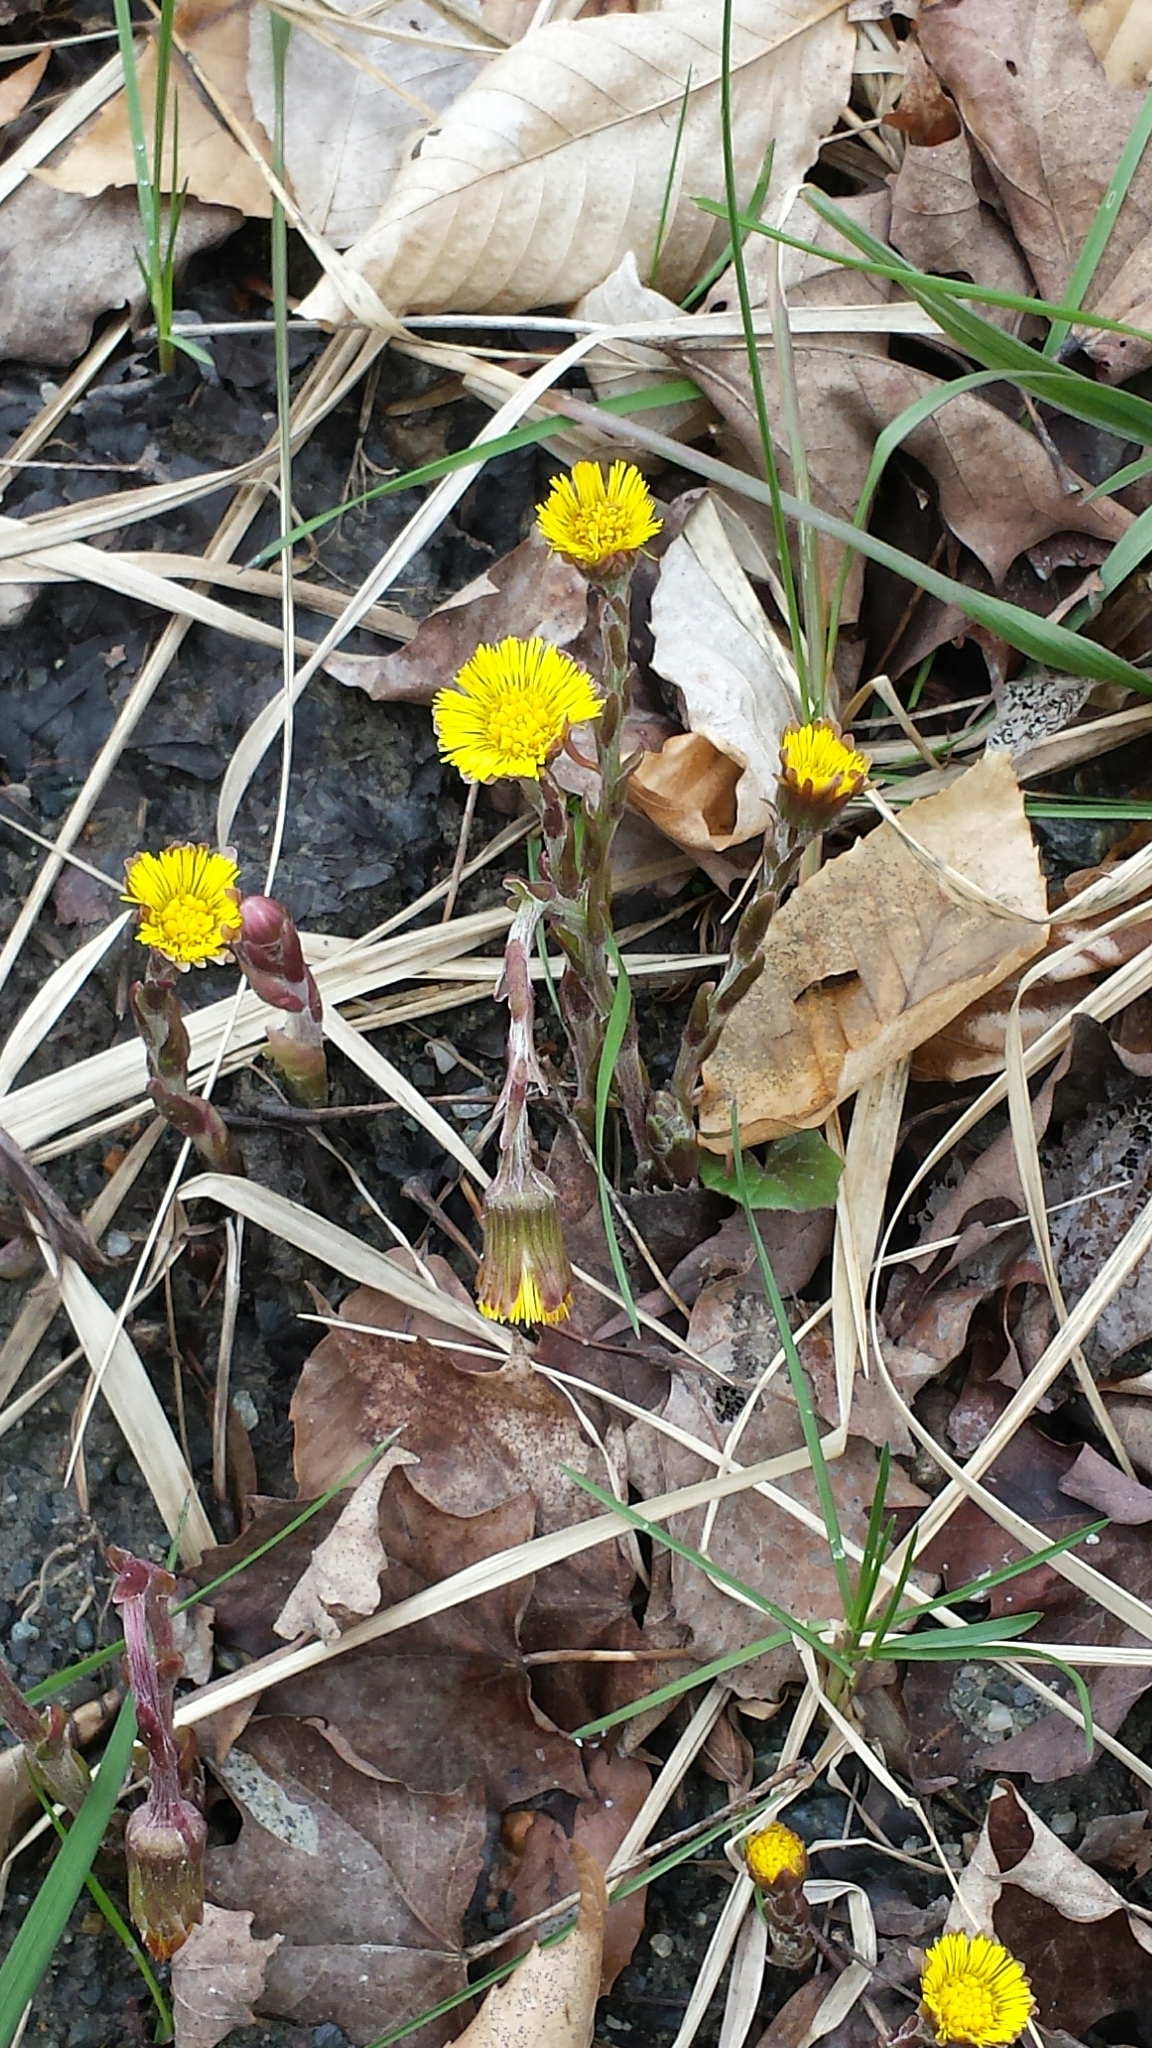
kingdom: Plantae
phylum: Tracheophyta
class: Magnoliopsida
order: Asterales
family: Asteraceae
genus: Tussilago
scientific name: Tussilago farfara
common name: Coltsfoot
